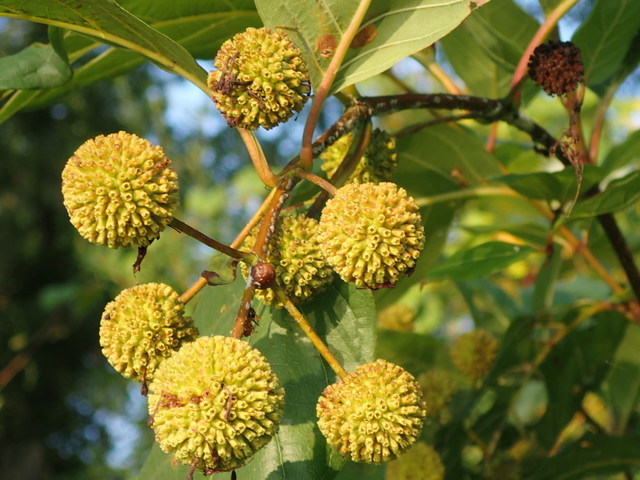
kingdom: Plantae
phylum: Tracheophyta
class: Magnoliopsida
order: Gentianales
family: Rubiaceae
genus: Cephalanthus
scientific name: Cephalanthus occidentalis
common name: Button-willow
